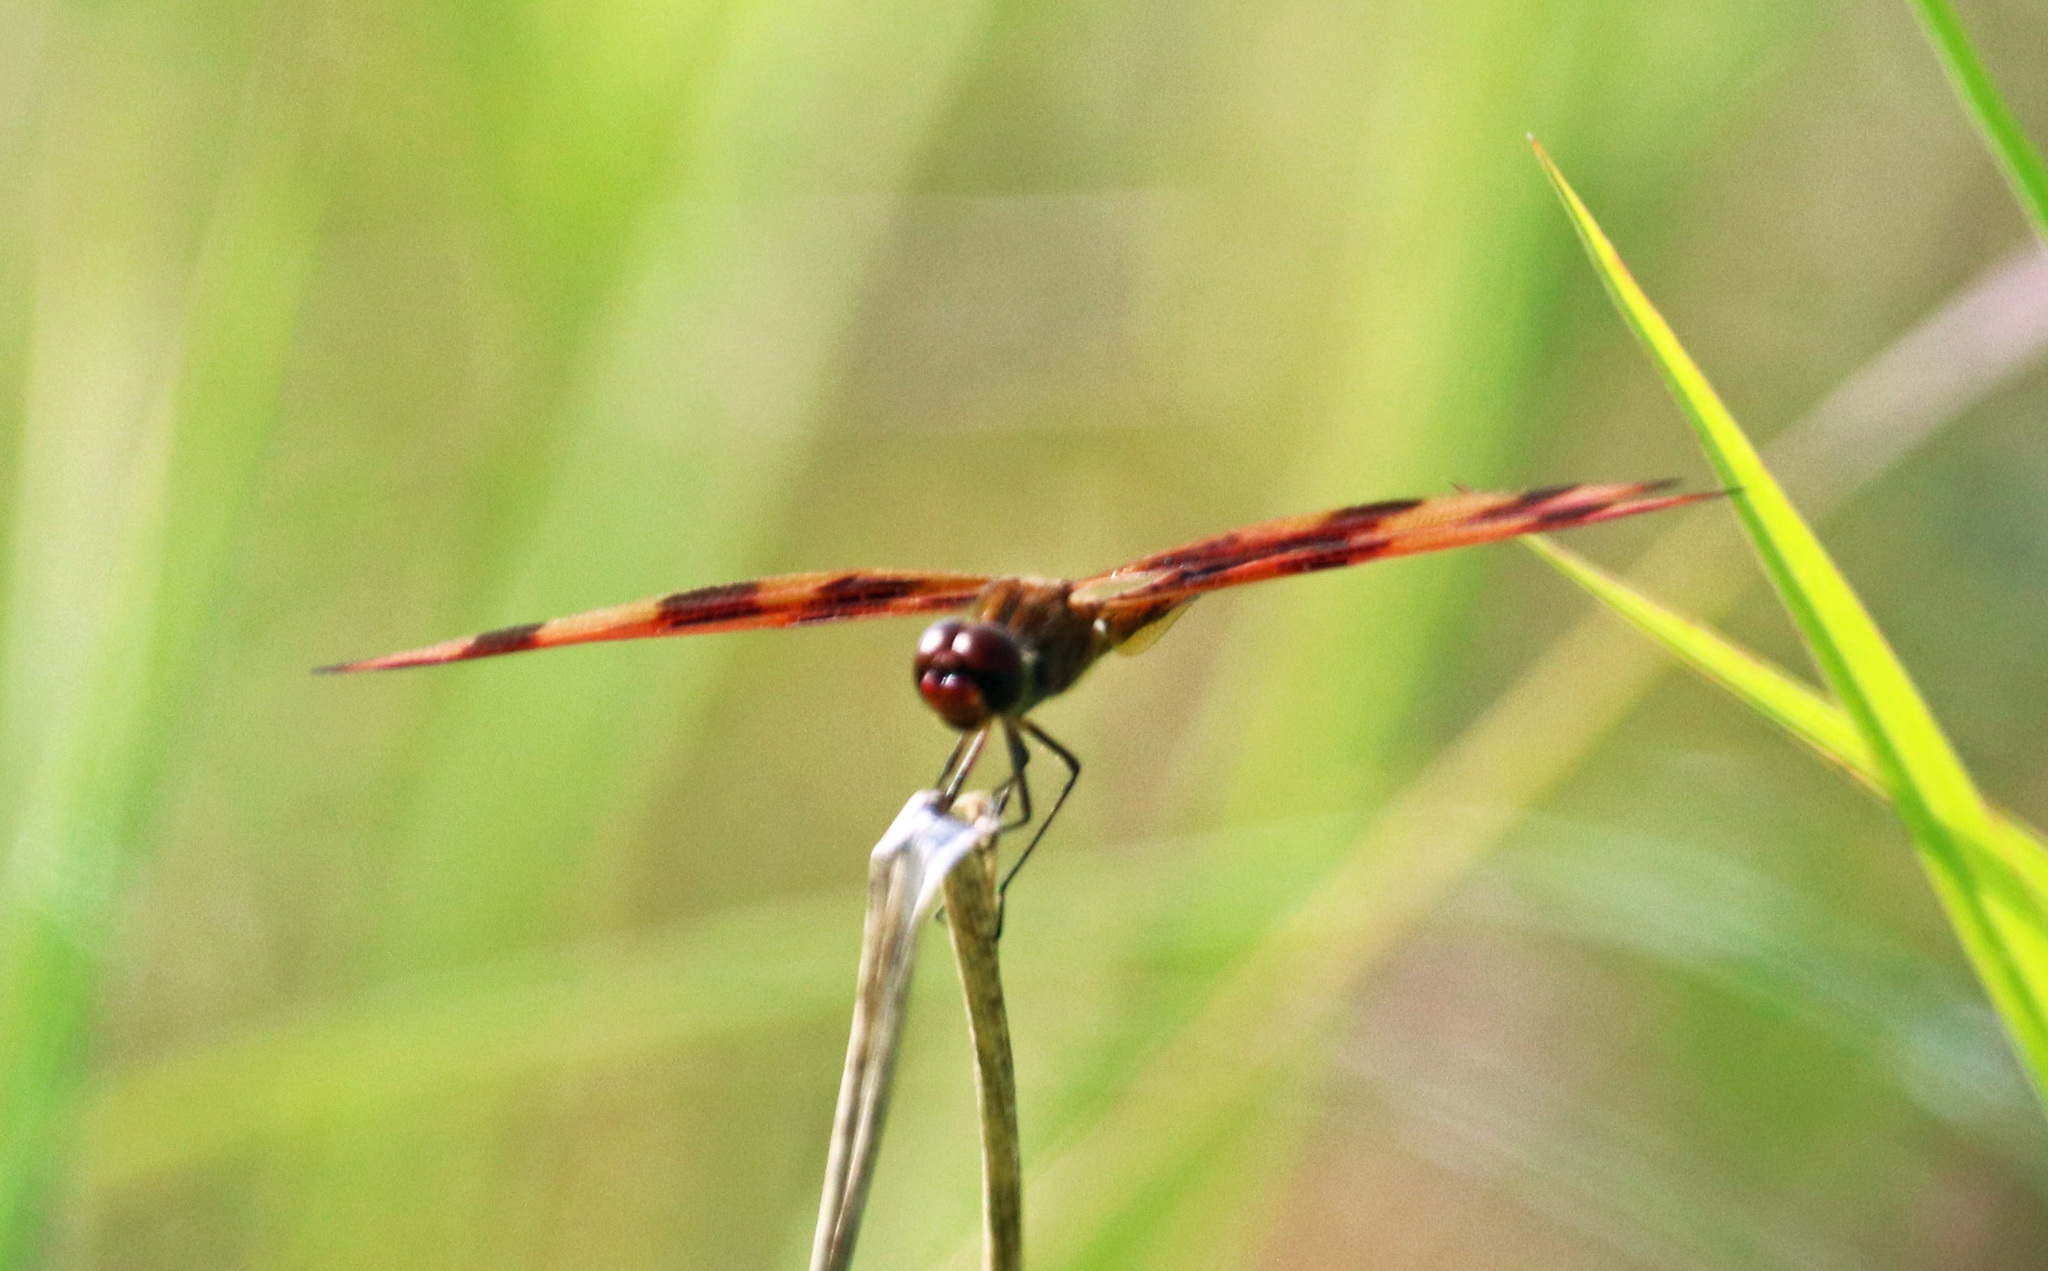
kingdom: Animalia
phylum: Arthropoda
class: Insecta
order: Odonata
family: Libellulidae
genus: Celithemis
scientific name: Celithemis eponina
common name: Halloween pennant
